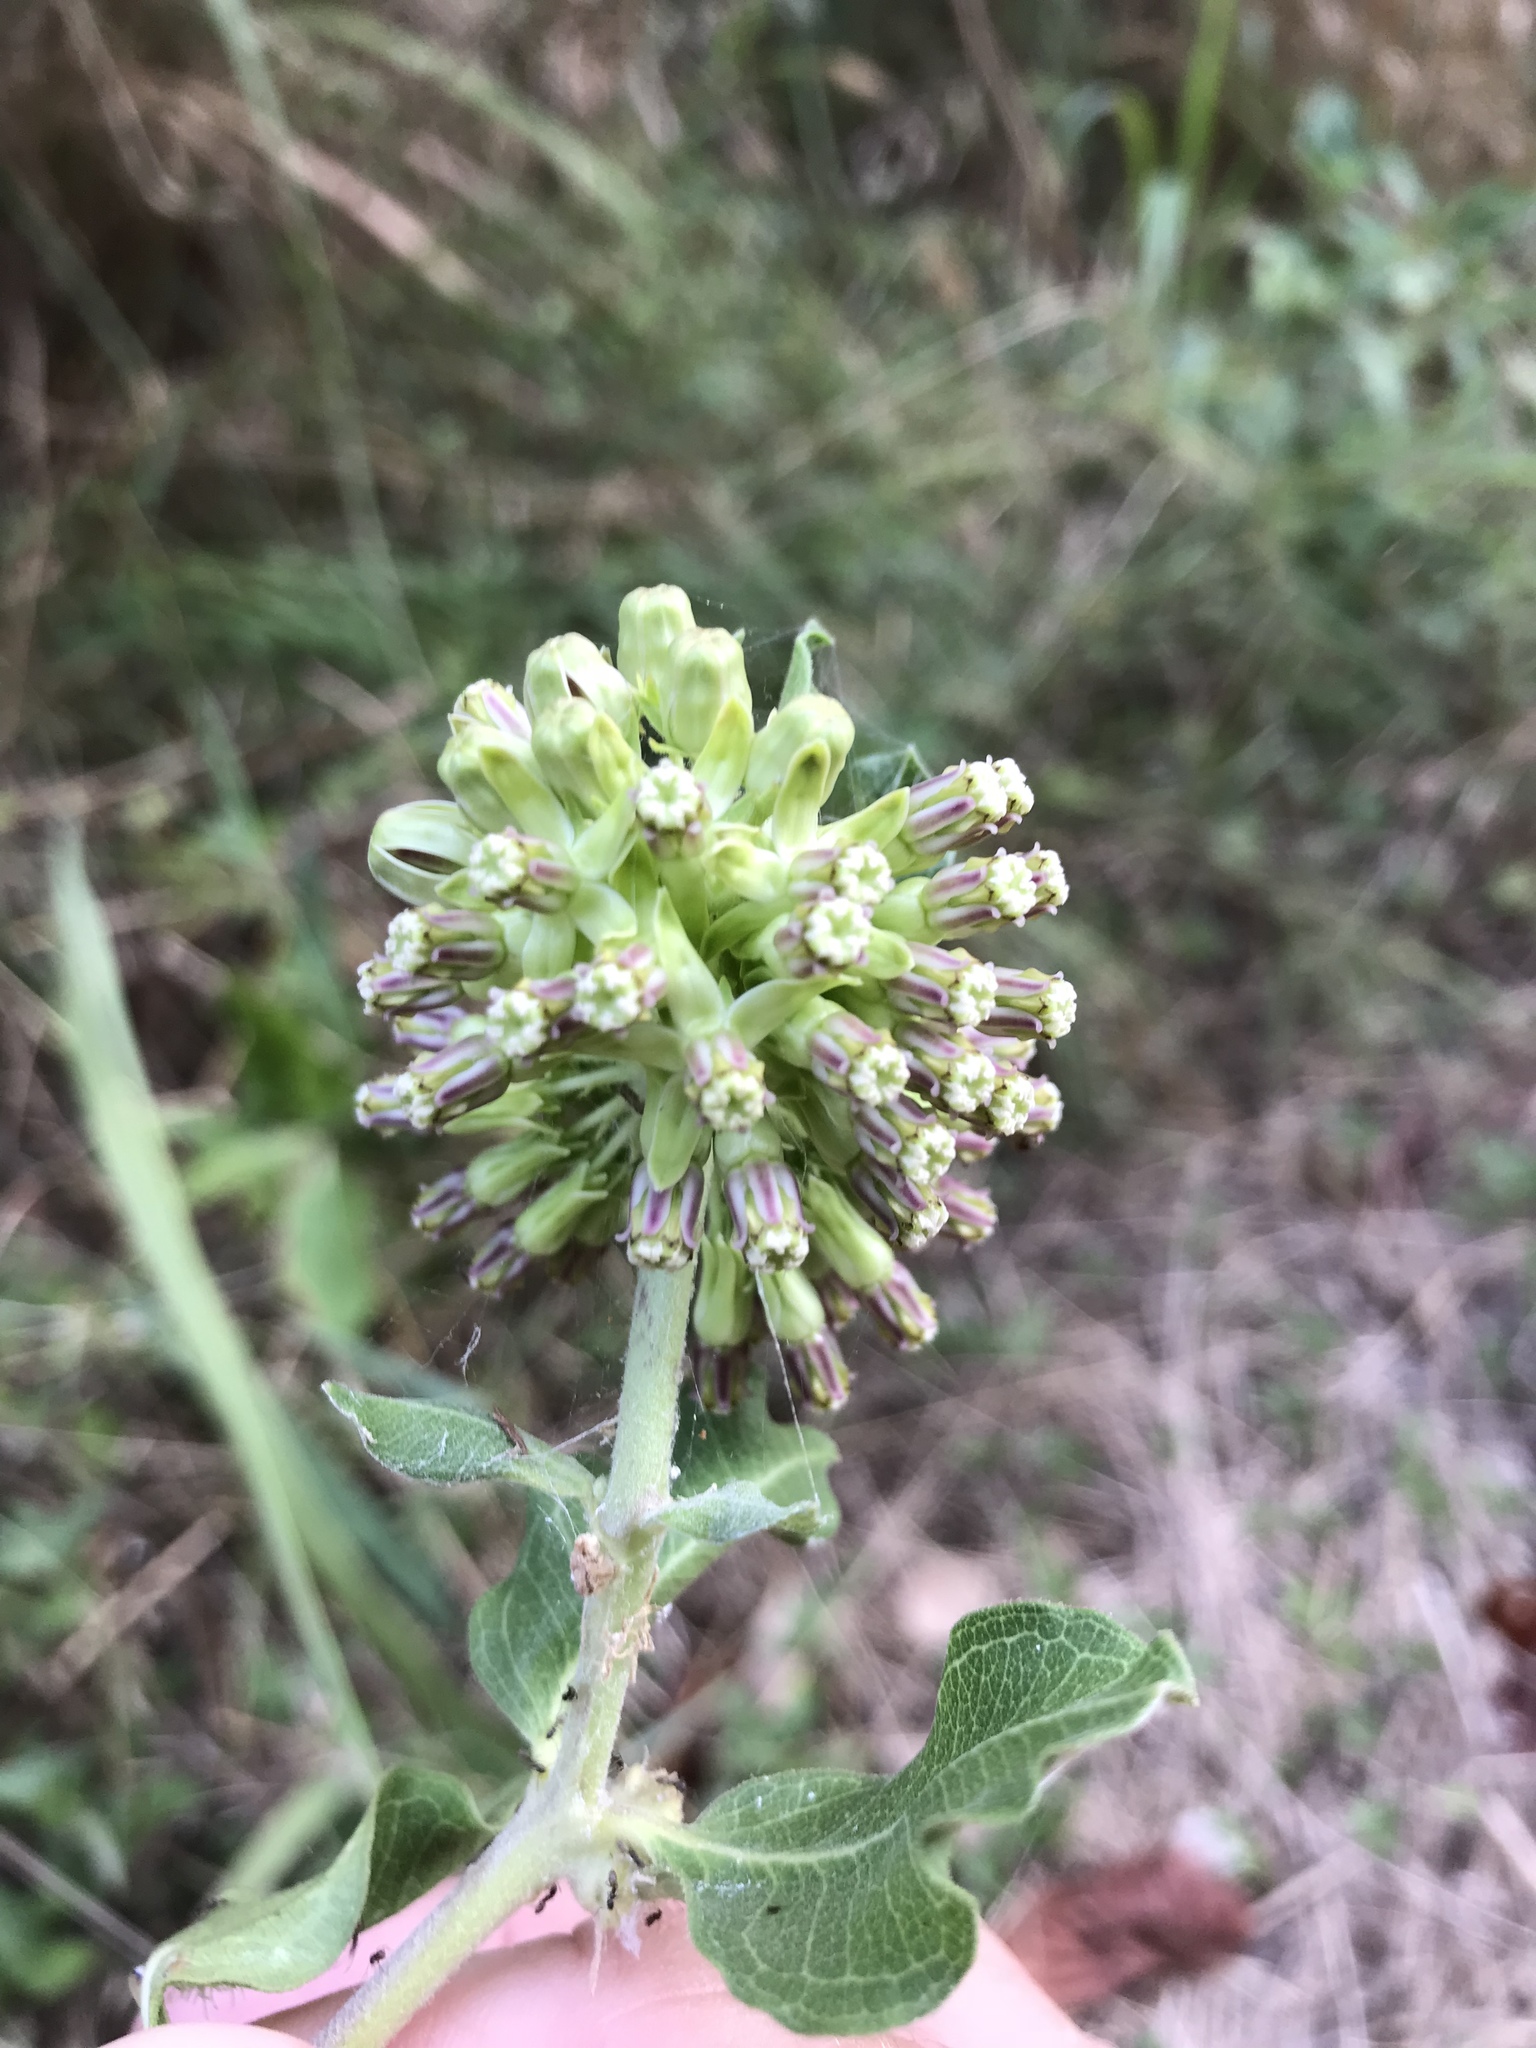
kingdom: Plantae
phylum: Tracheophyta
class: Magnoliopsida
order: Gentianales
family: Apocynaceae
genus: Asclepias
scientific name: Asclepias viridiflora
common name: Green comet milkweed
